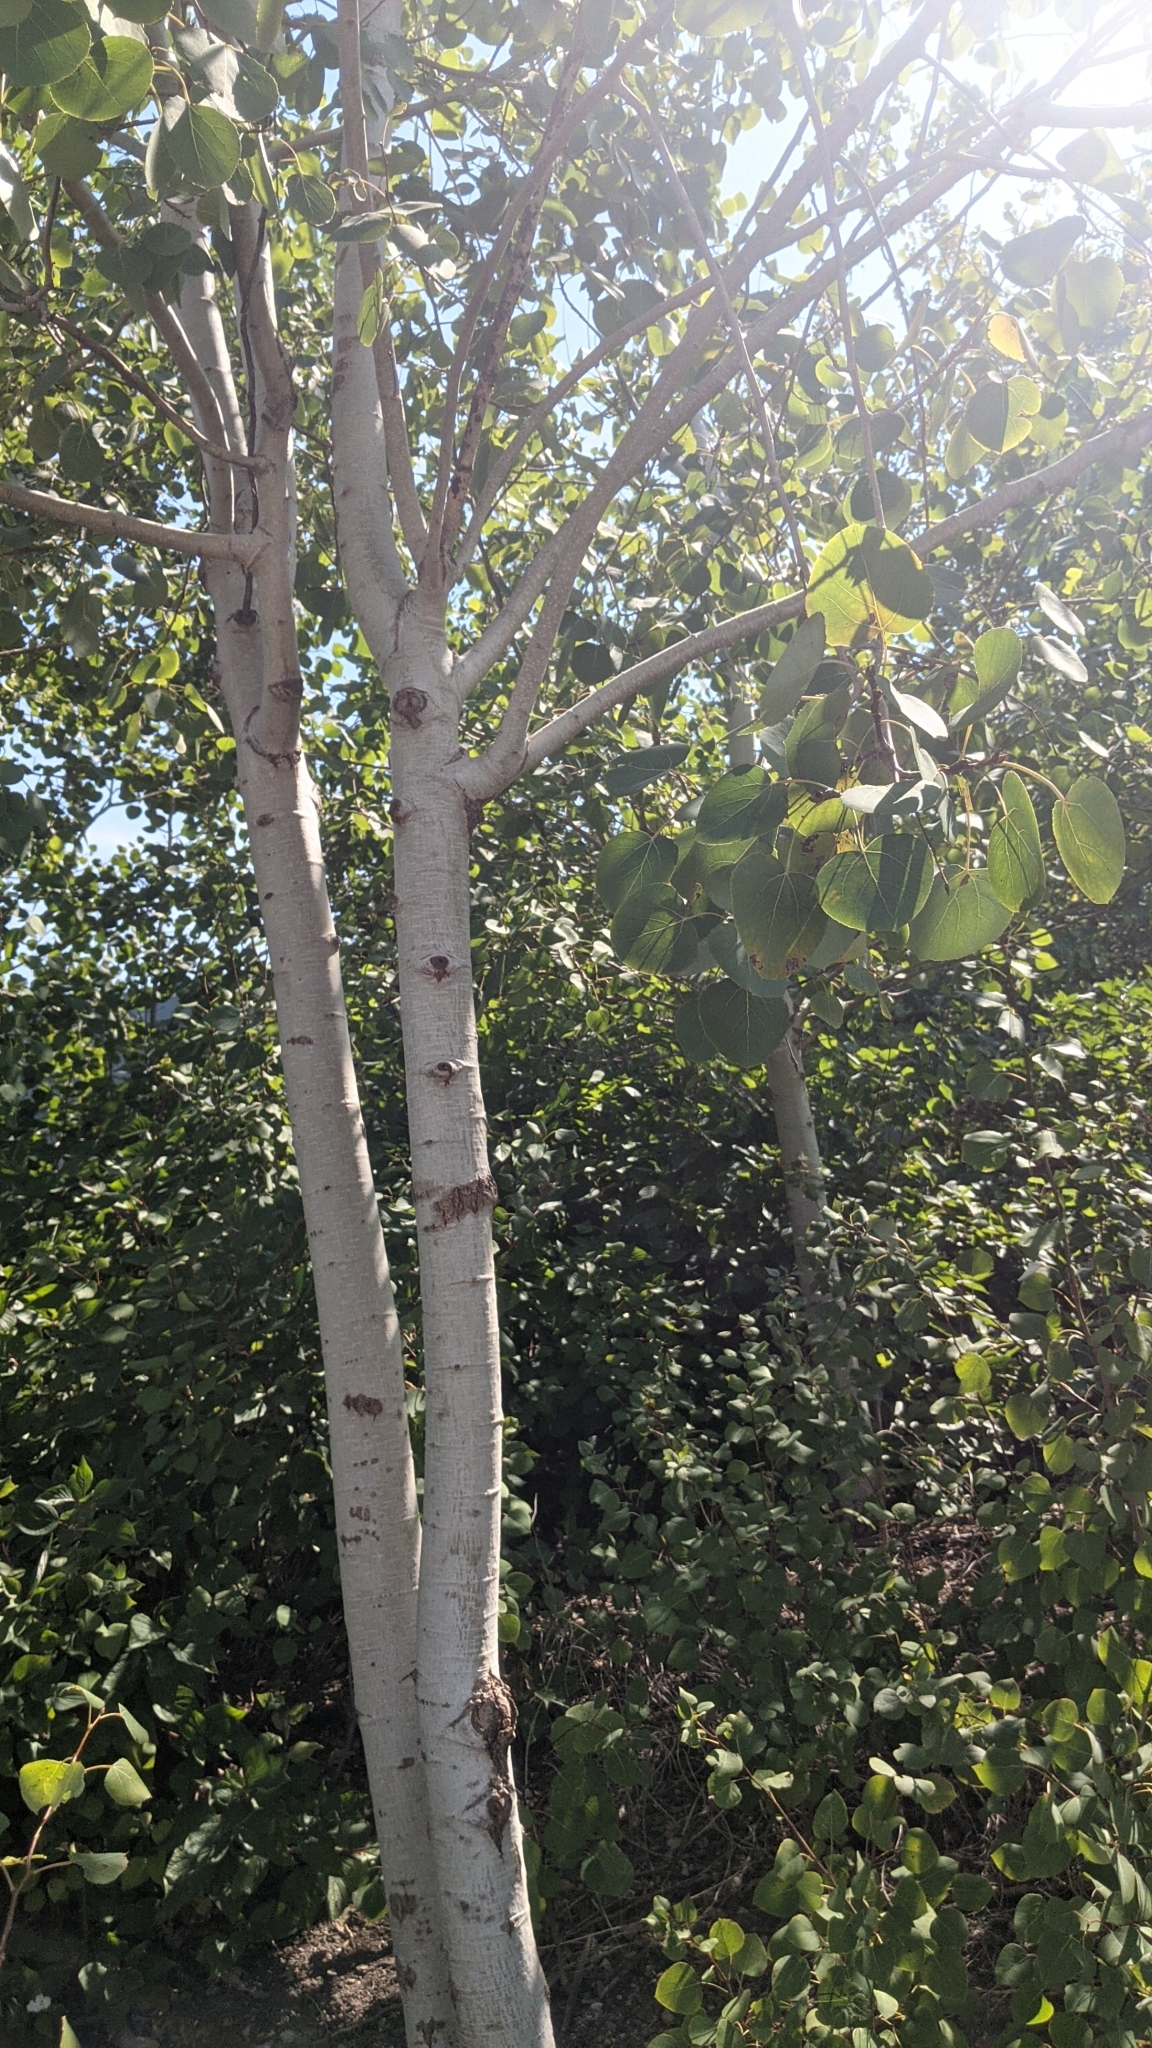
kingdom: Plantae
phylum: Tracheophyta
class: Magnoliopsida
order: Malpighiales
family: Salicaceae
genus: Populus
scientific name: Populus tremuloides
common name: Quaking aspen
